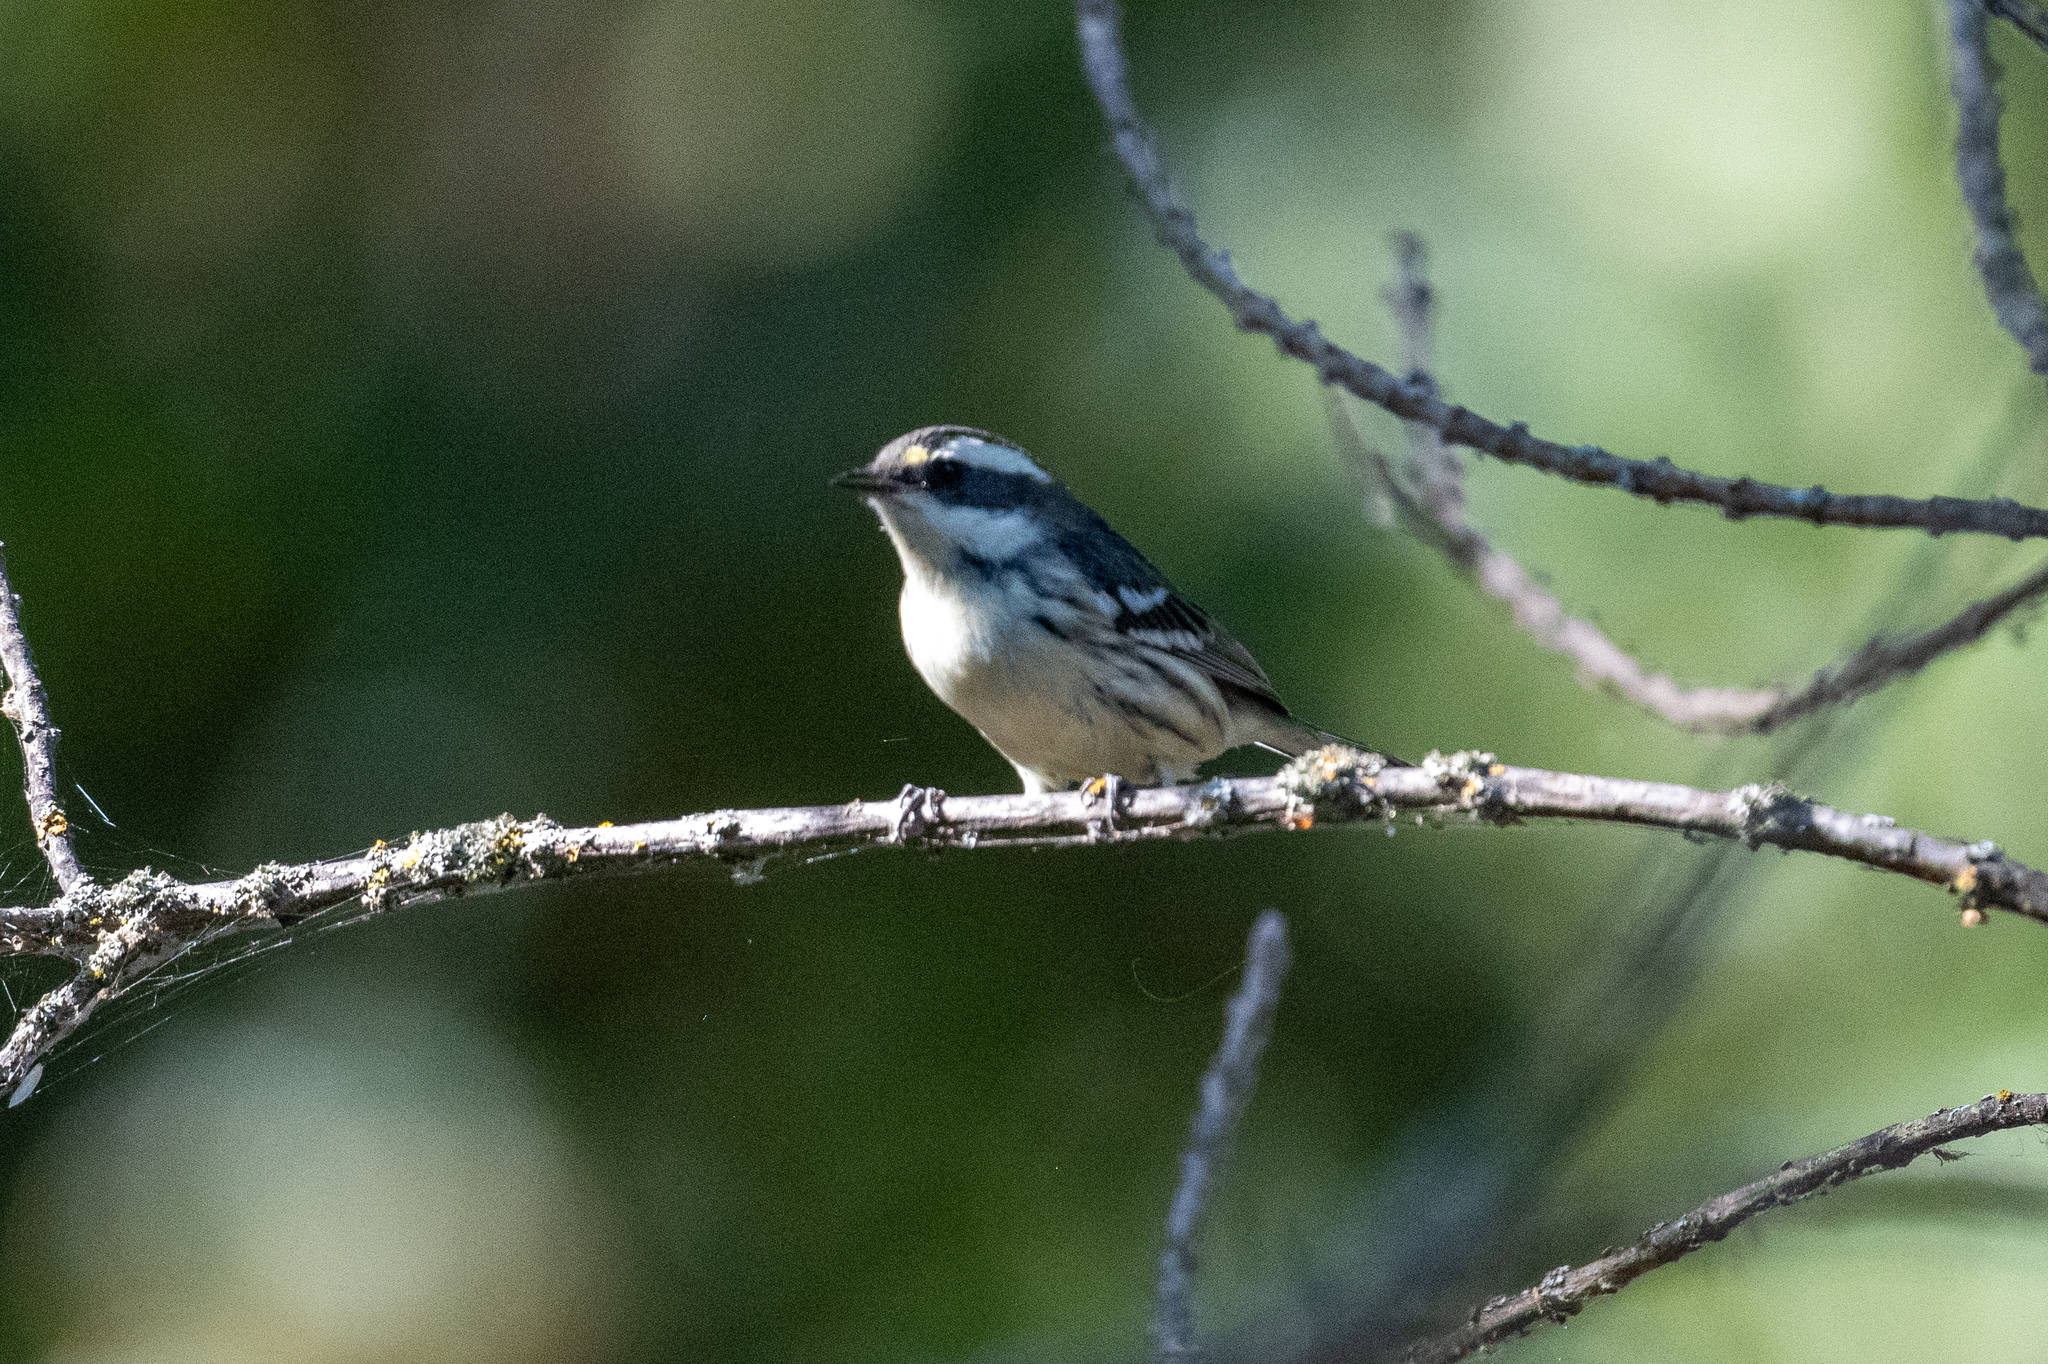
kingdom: Animalia
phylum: Chordata
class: Aves
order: Passeriformes
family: Parulidae
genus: Setophaga
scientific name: Setophaga nigrescens
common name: Black-throated gray warbler
